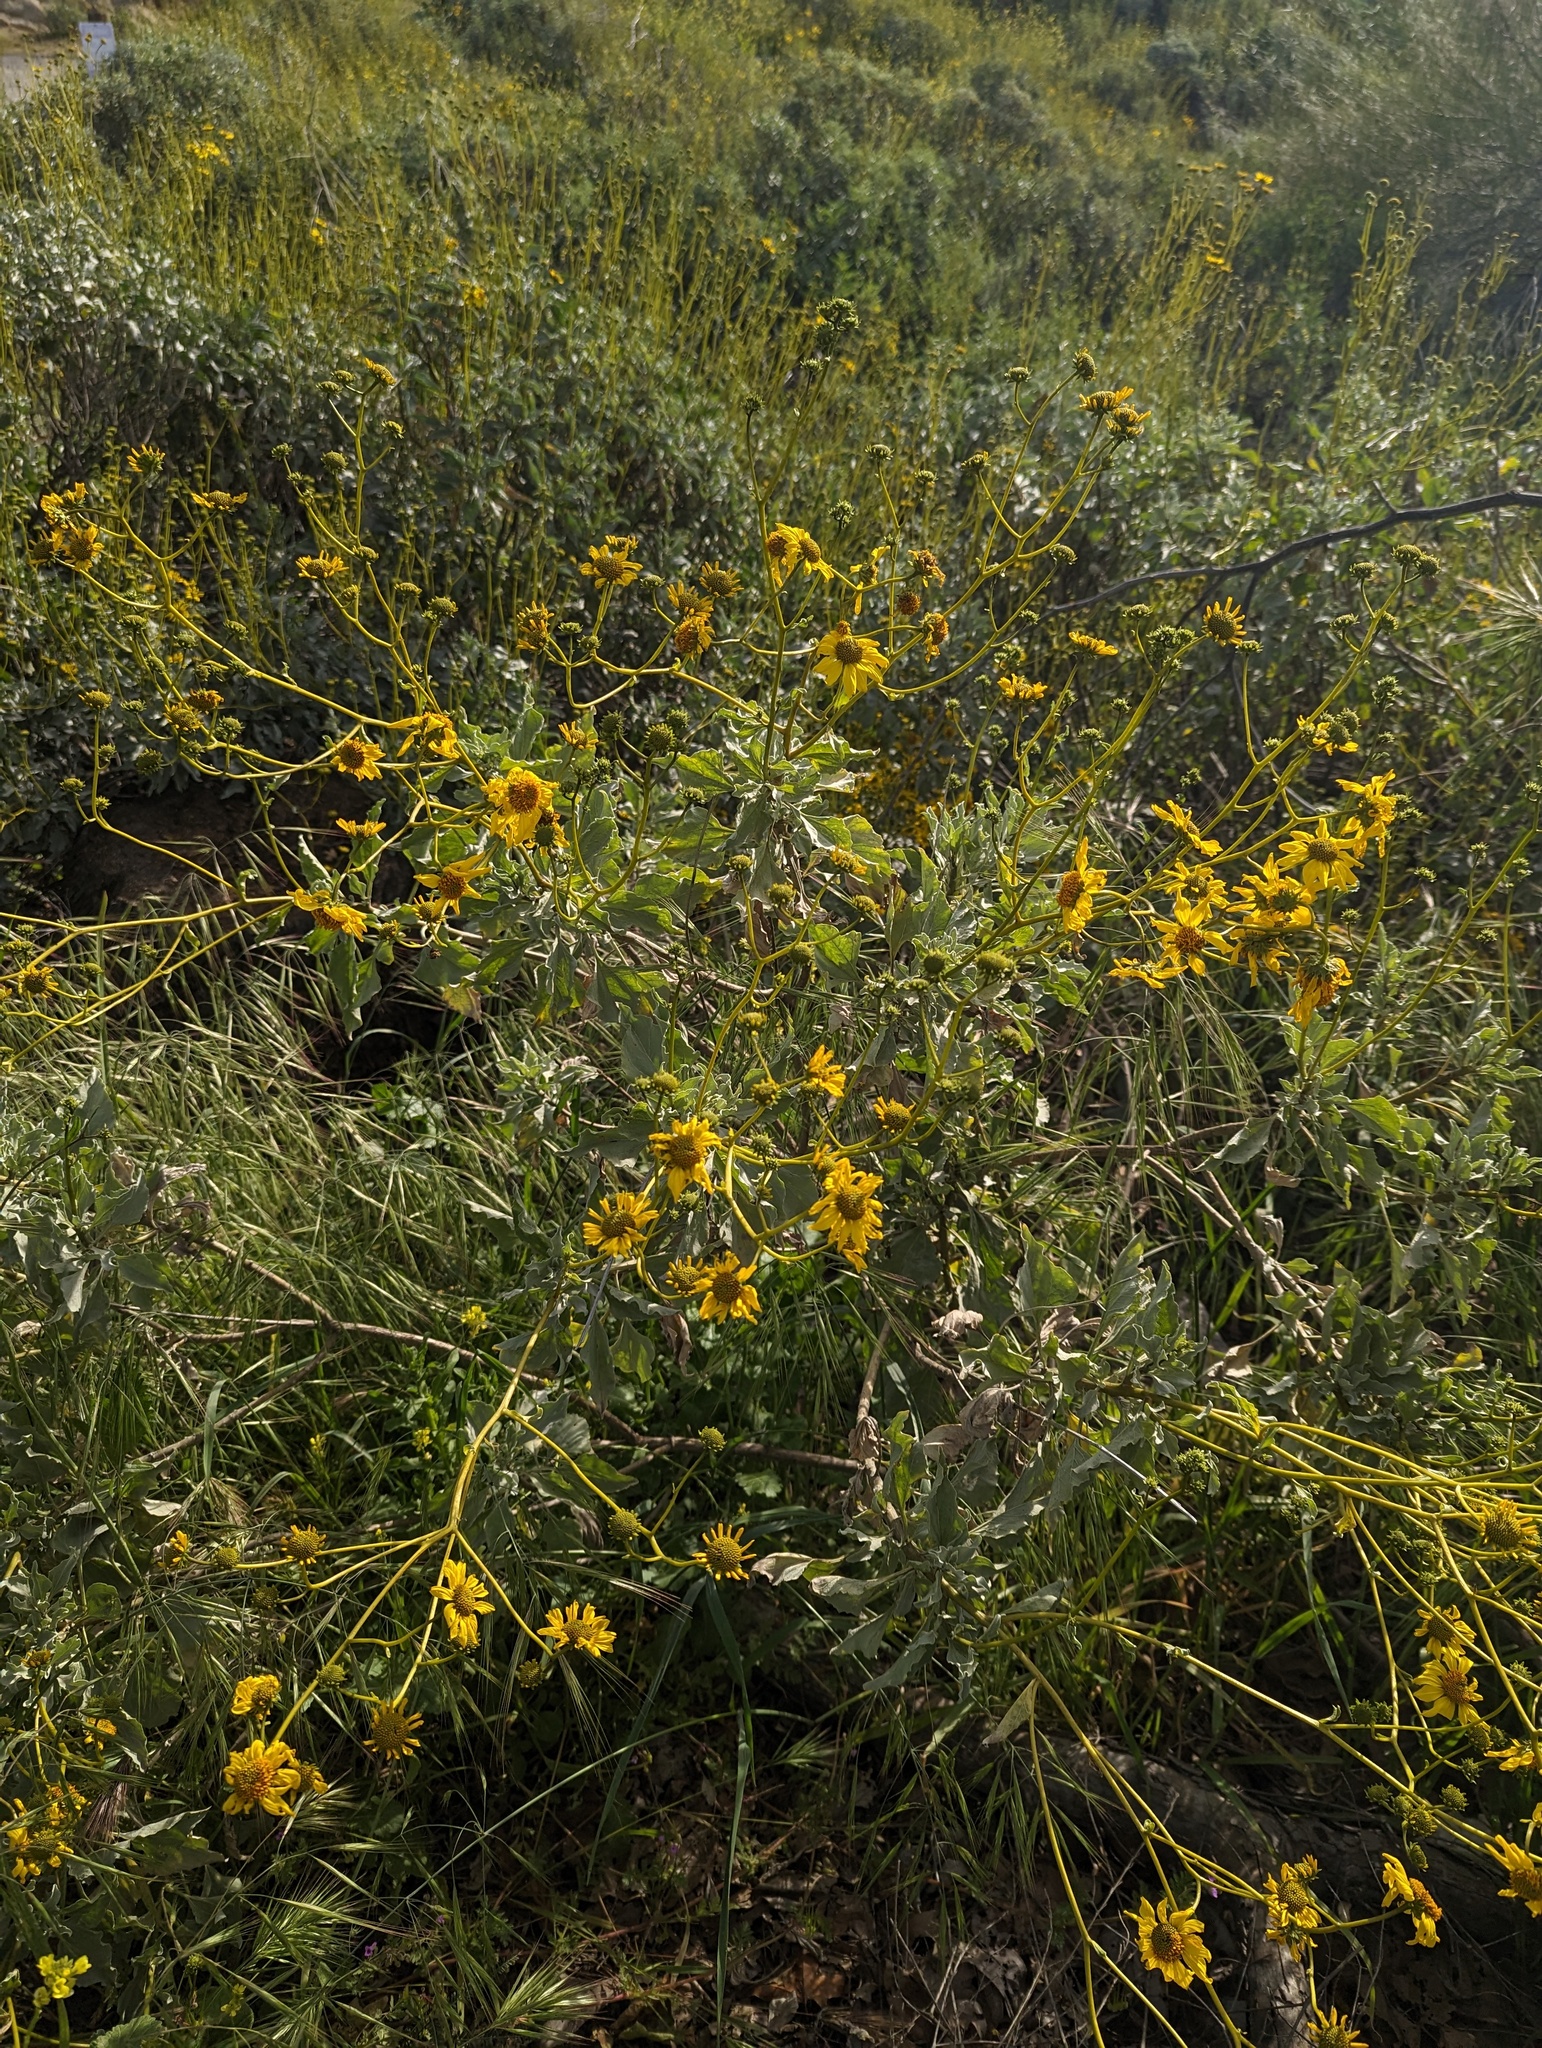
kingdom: Plantae
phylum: Tracheophyta
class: Magnoliopsida
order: Asterales
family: Asteraceae
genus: Encelia
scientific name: Encelia farinosa
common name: Brittlebush
